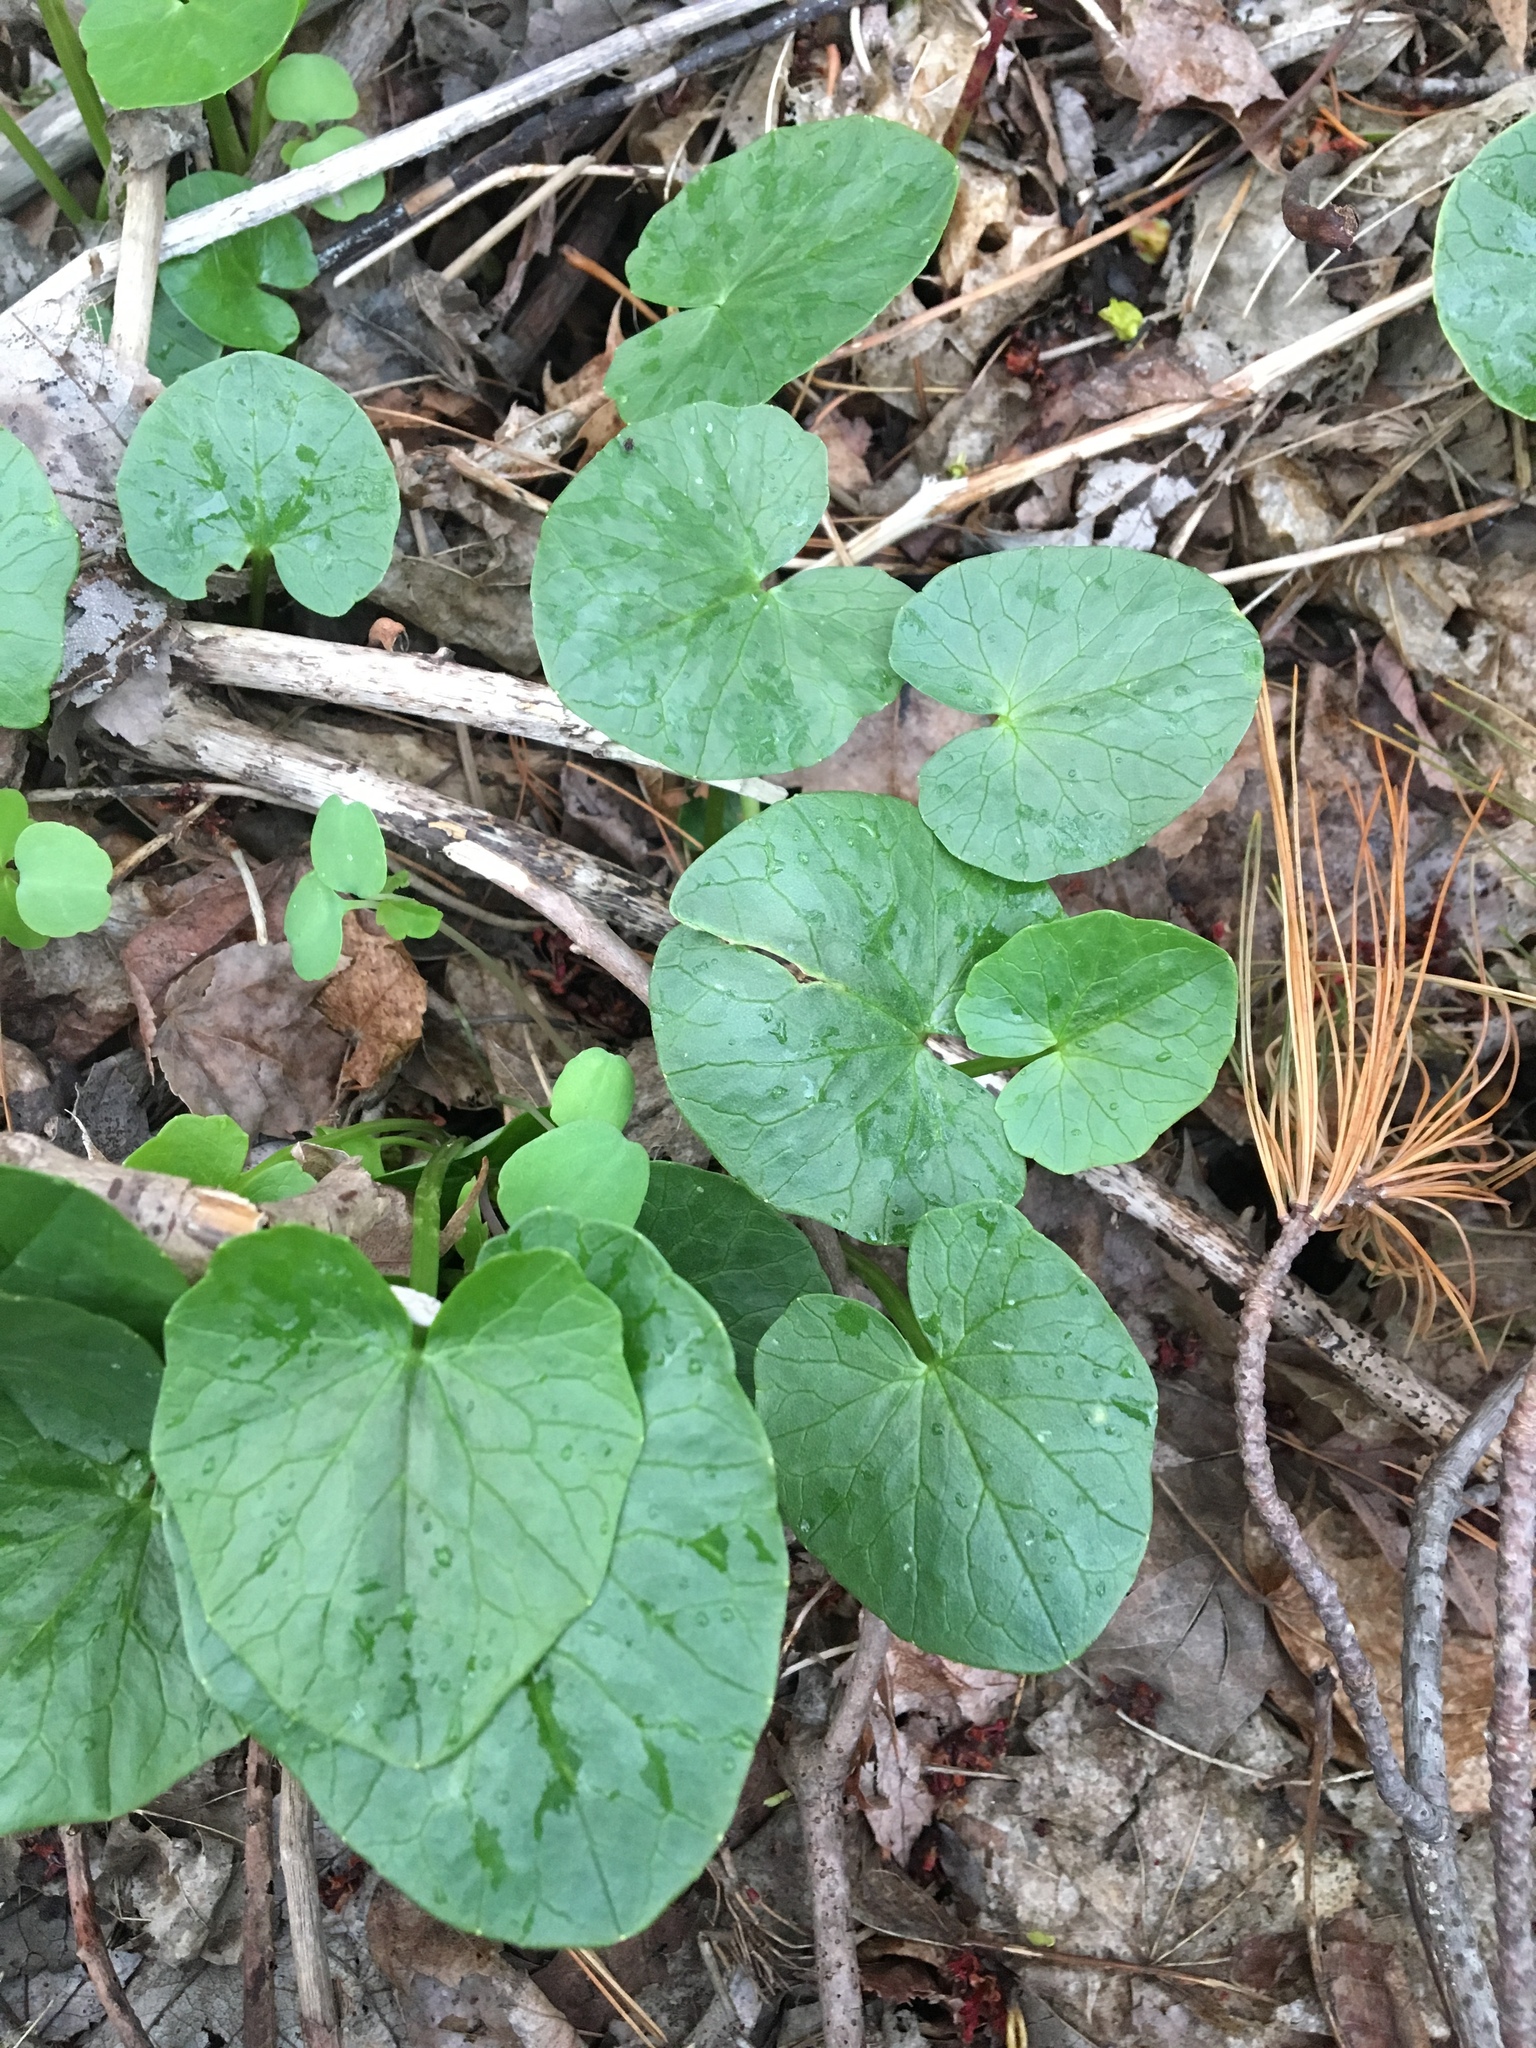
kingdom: Plantae
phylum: Tracheophyta
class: Magnoliopsida
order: Ranunculales
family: Ranunculaceae
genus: Ficaria
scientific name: Ficaria verna
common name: Lesser celandine
